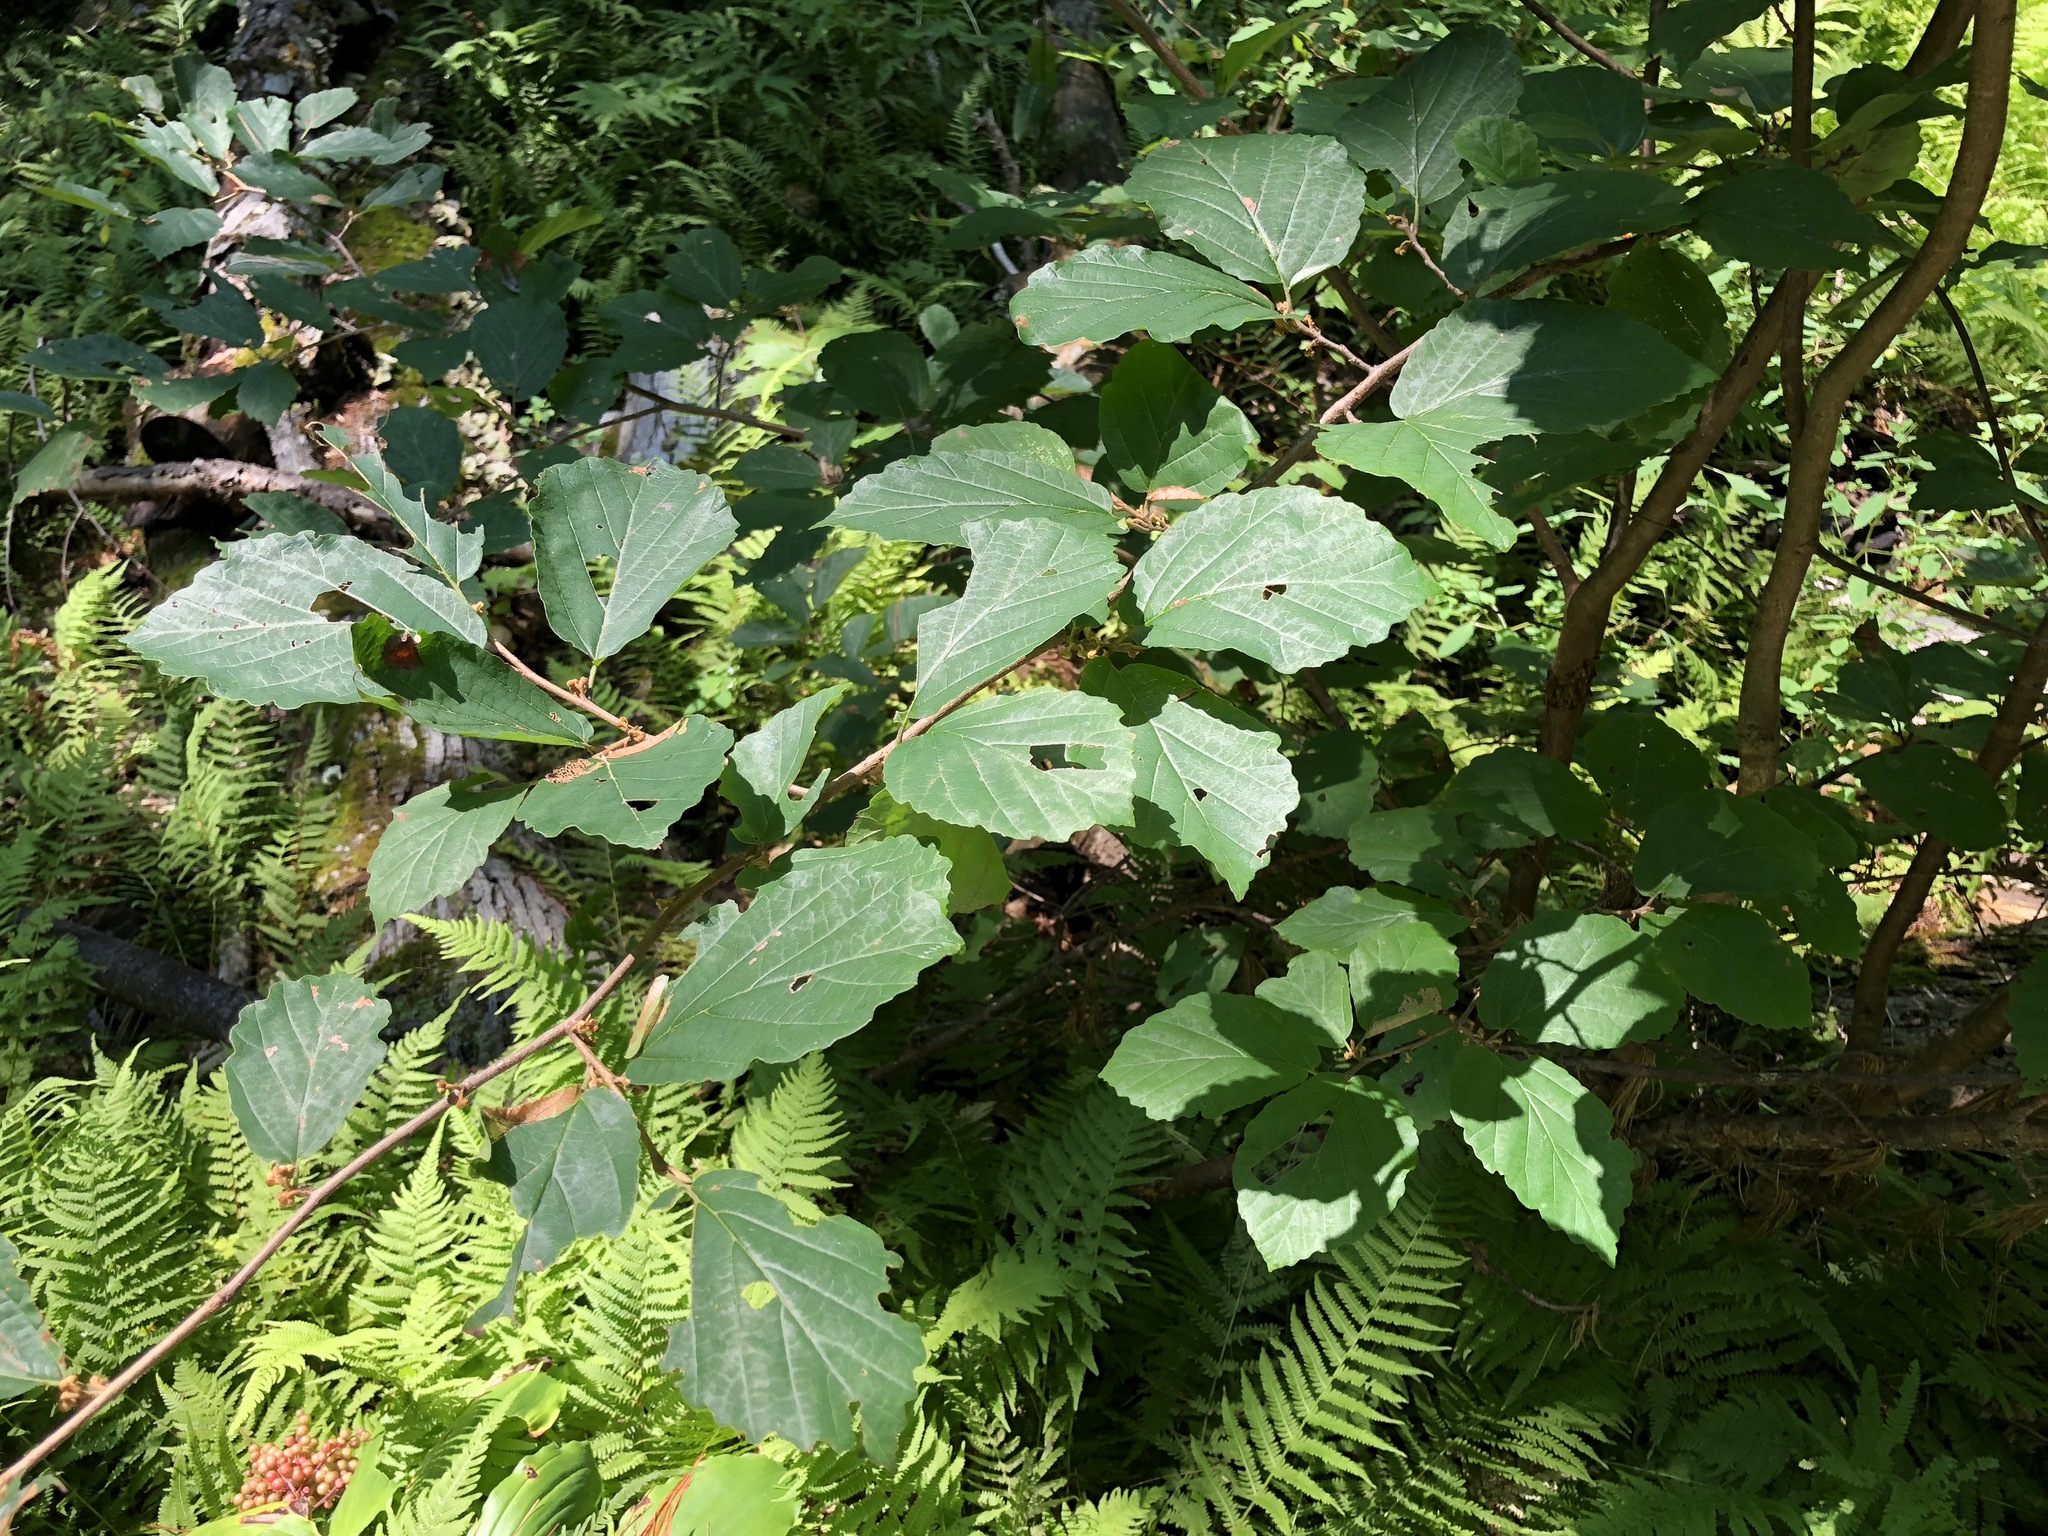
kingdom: Plantae
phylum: Tracheophyta
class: Magnoliopsida
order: Saxifragales
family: Hamamelidaceae
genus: Hamamelis
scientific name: Hamamelis virginiana
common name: Witch-hazel
